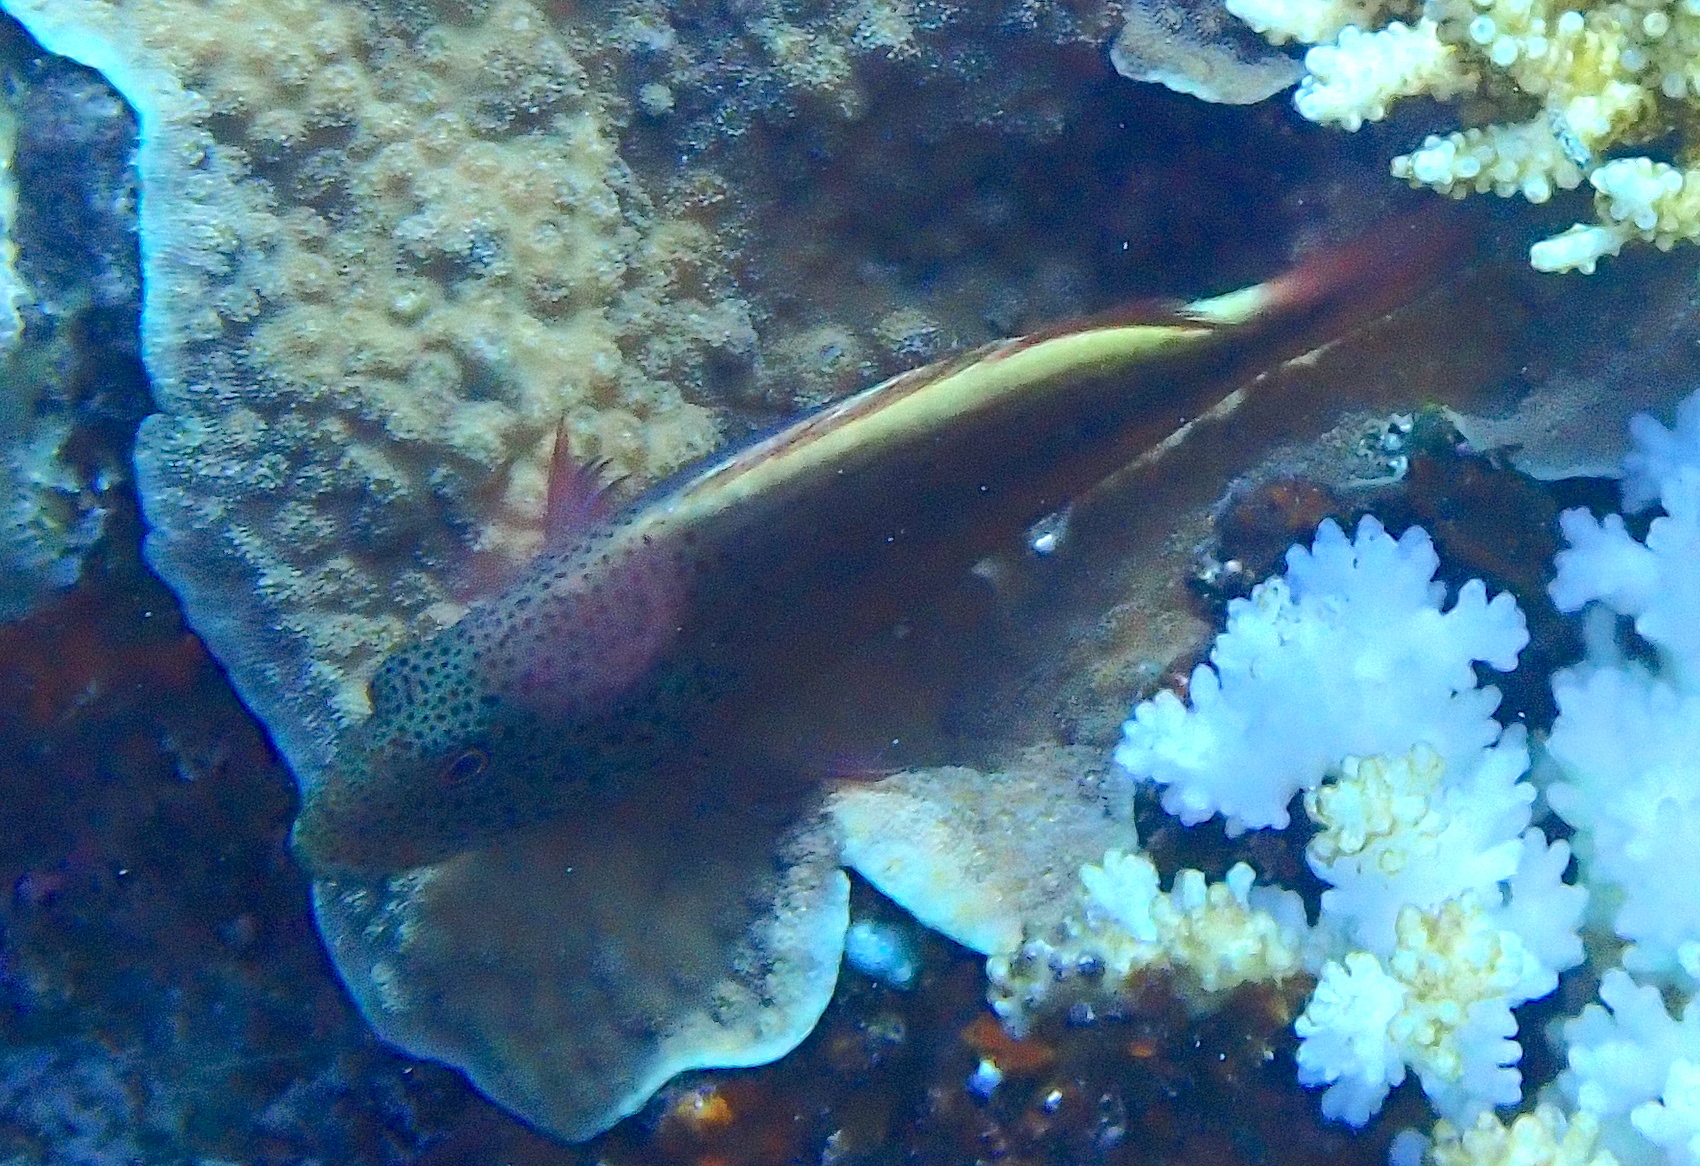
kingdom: Animalia
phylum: Chordata
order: Perciformes
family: Cirrhitidae
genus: Paracirrhites
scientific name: Paracirrhites forsteri
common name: Freckled hawkfish
